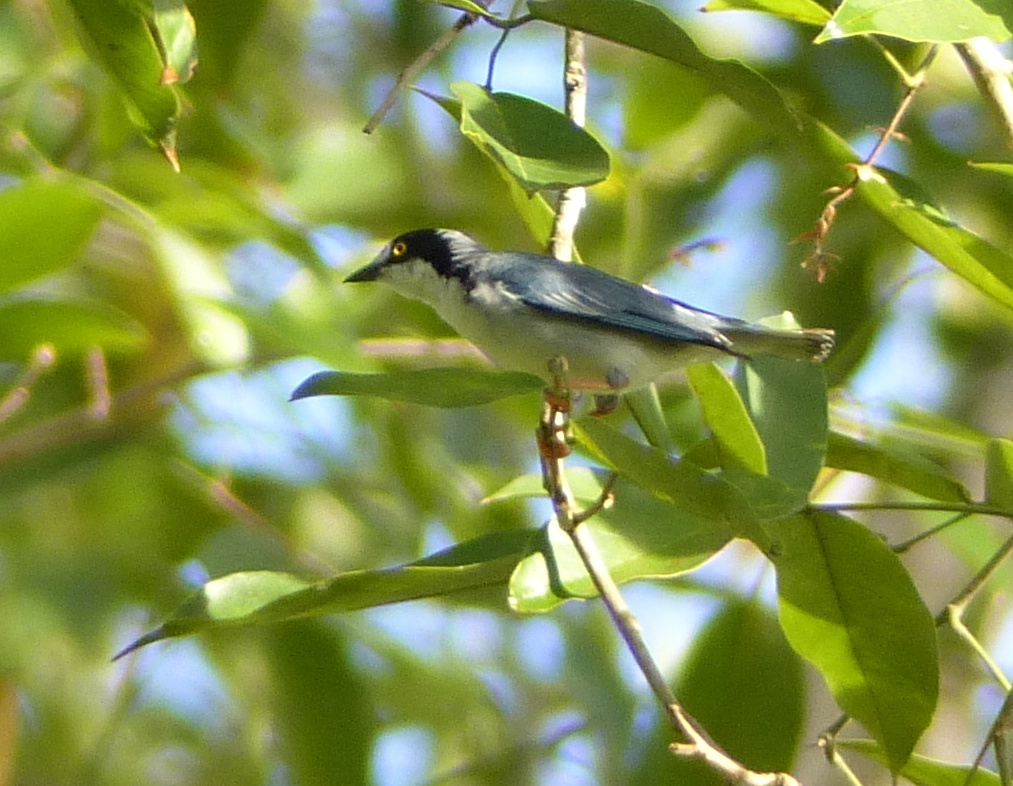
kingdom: Animalia
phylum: Chordata
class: Aves
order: Passeriformes
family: Thraupidae
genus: Nemosia
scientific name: Nemosia pileata
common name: Hooded tanager
